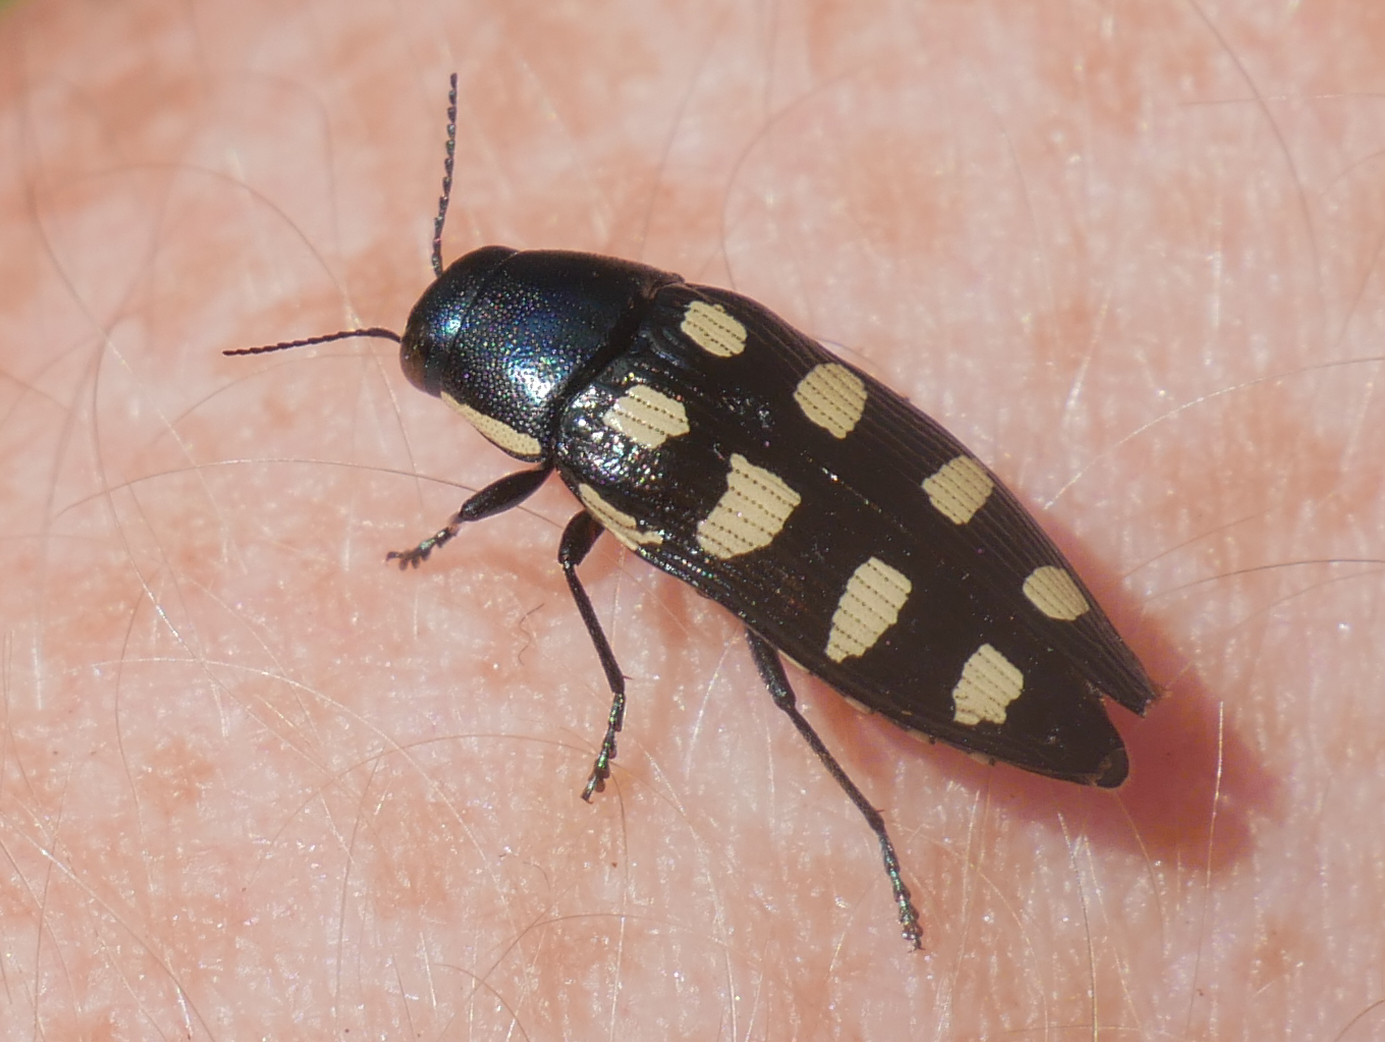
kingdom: Animalia
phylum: Arthropoda
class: Insecta
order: Coleoptera
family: Buprestidae
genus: Buprestis
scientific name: Buprestis octoguttata
